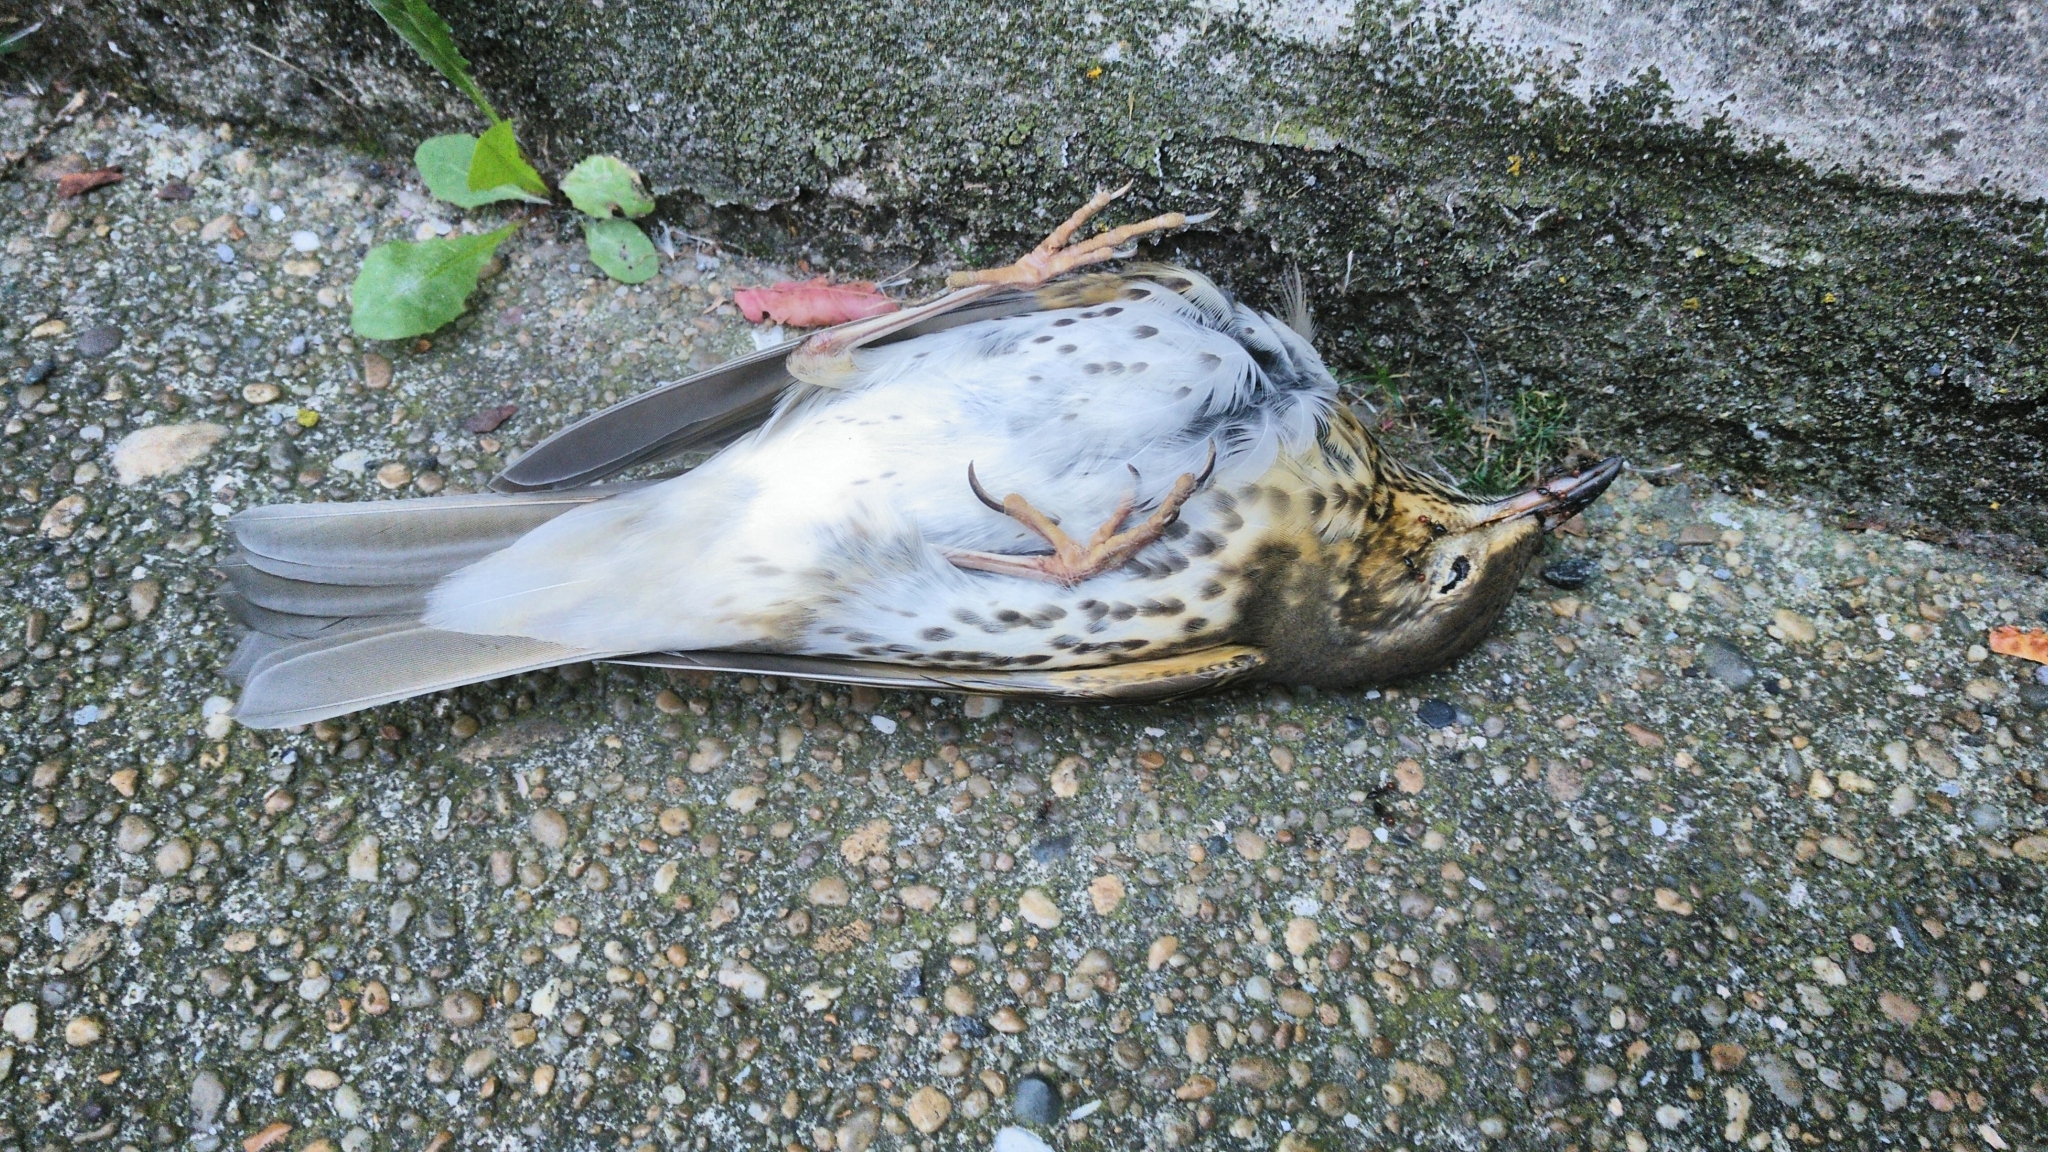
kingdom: Animalia
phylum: Chordata
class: Aves
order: Passeriformes
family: Turdidae
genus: Turdus
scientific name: Turdus philomelos
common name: Song thrush
